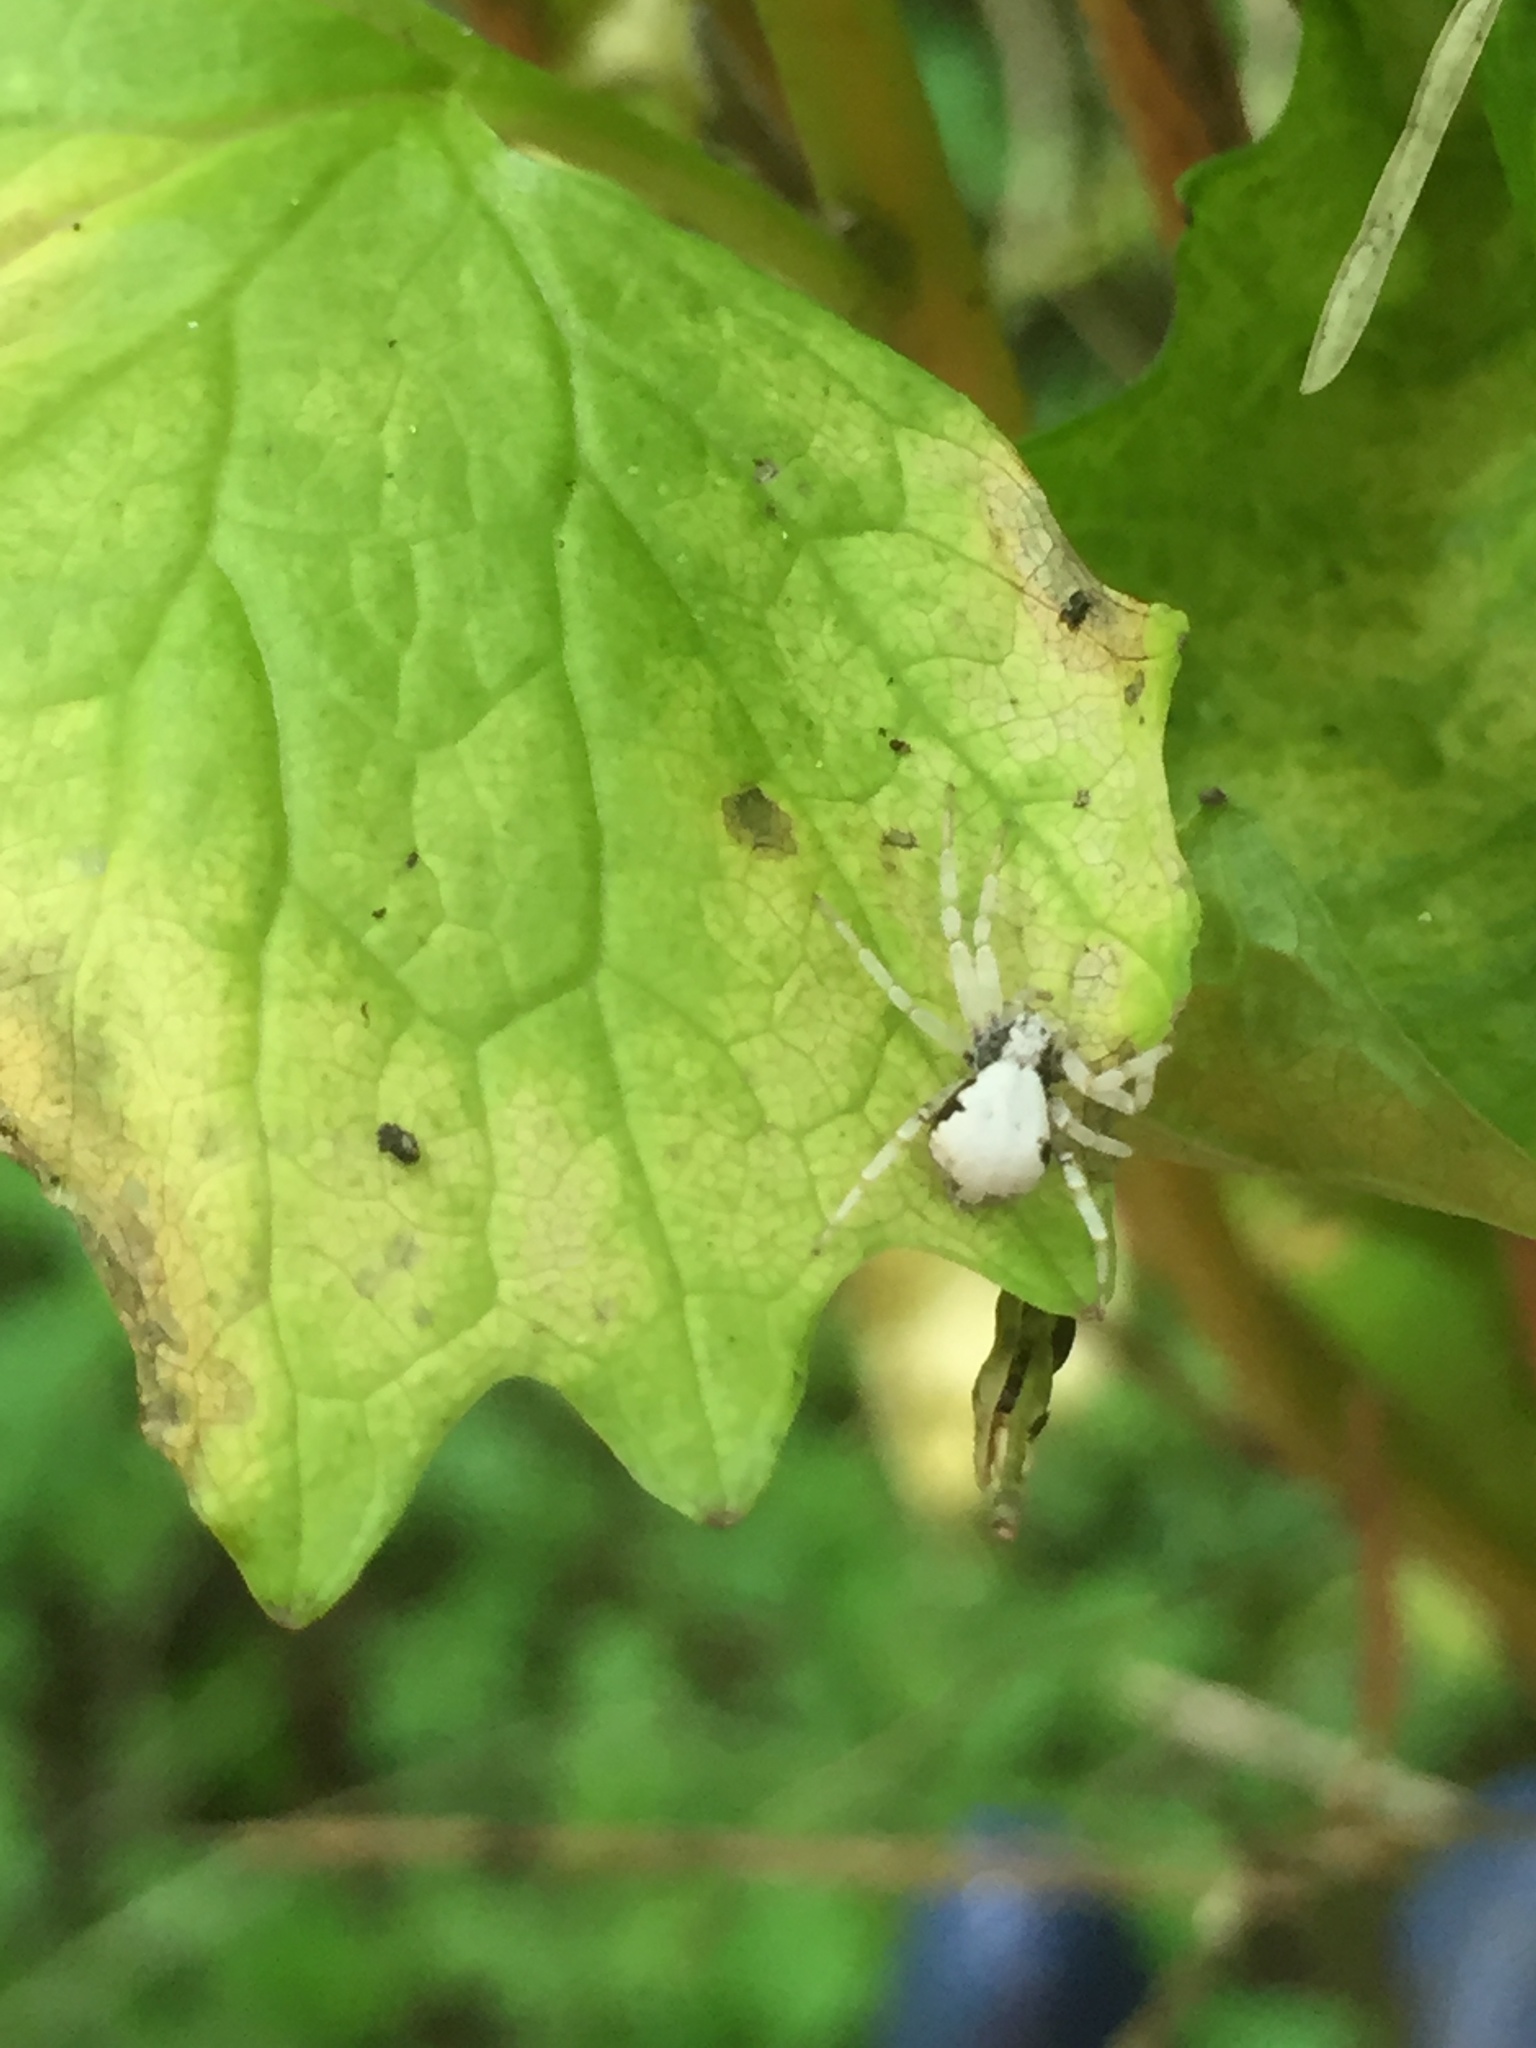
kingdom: Animalia
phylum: Arthropoda
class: Arachnida
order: Araneae
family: Philodromidae
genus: Philodromus
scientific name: Philodromus marxi
